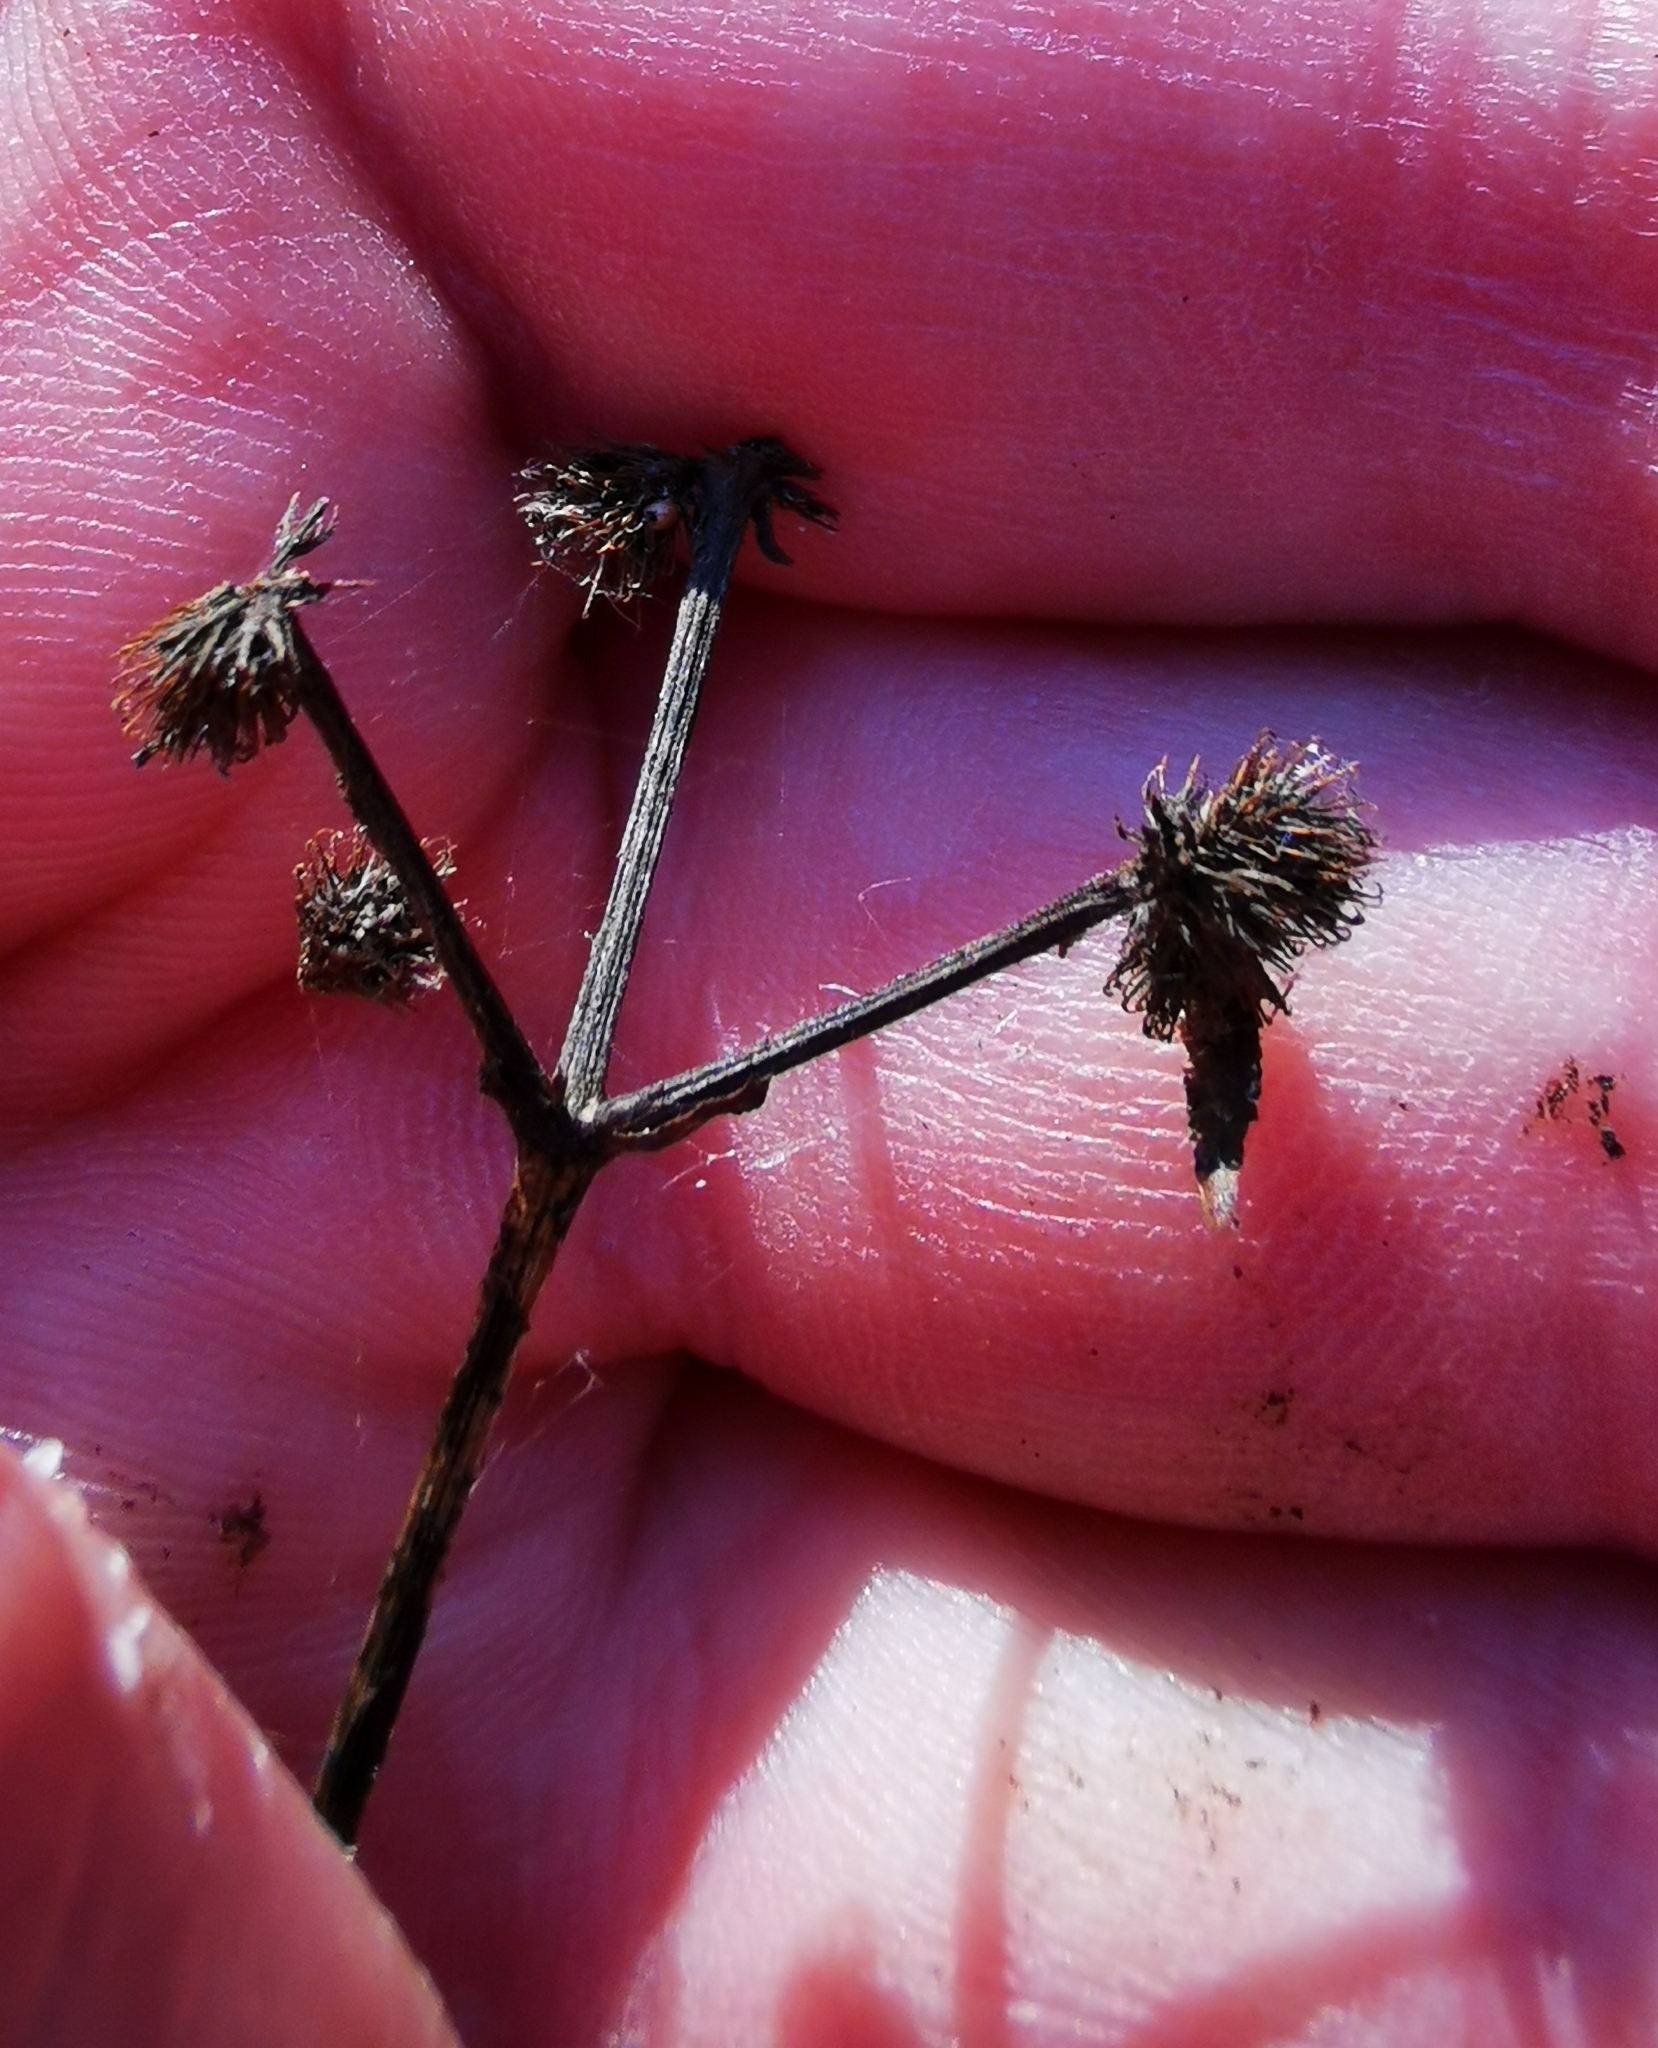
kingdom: Plantae
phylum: Tracheophyta
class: Magnoliopsida
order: Apiales
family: Apiaceae
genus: Sanicula
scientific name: Sanicula europaea
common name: Sanicle
